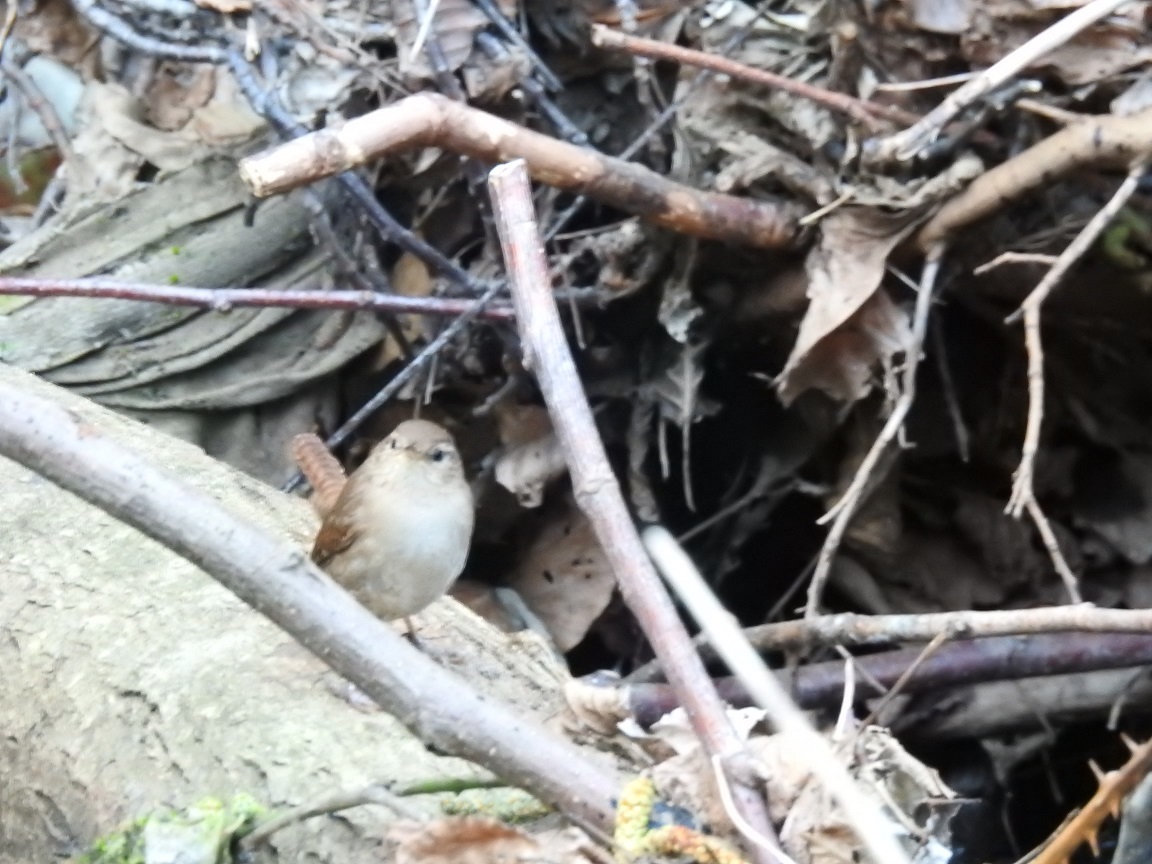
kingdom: Animalia
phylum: Chordata
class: Aves
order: Passeriformes
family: Troglodytidae
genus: Troglodytes
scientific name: Troglodytes troglodytes
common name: Eurasian wren
